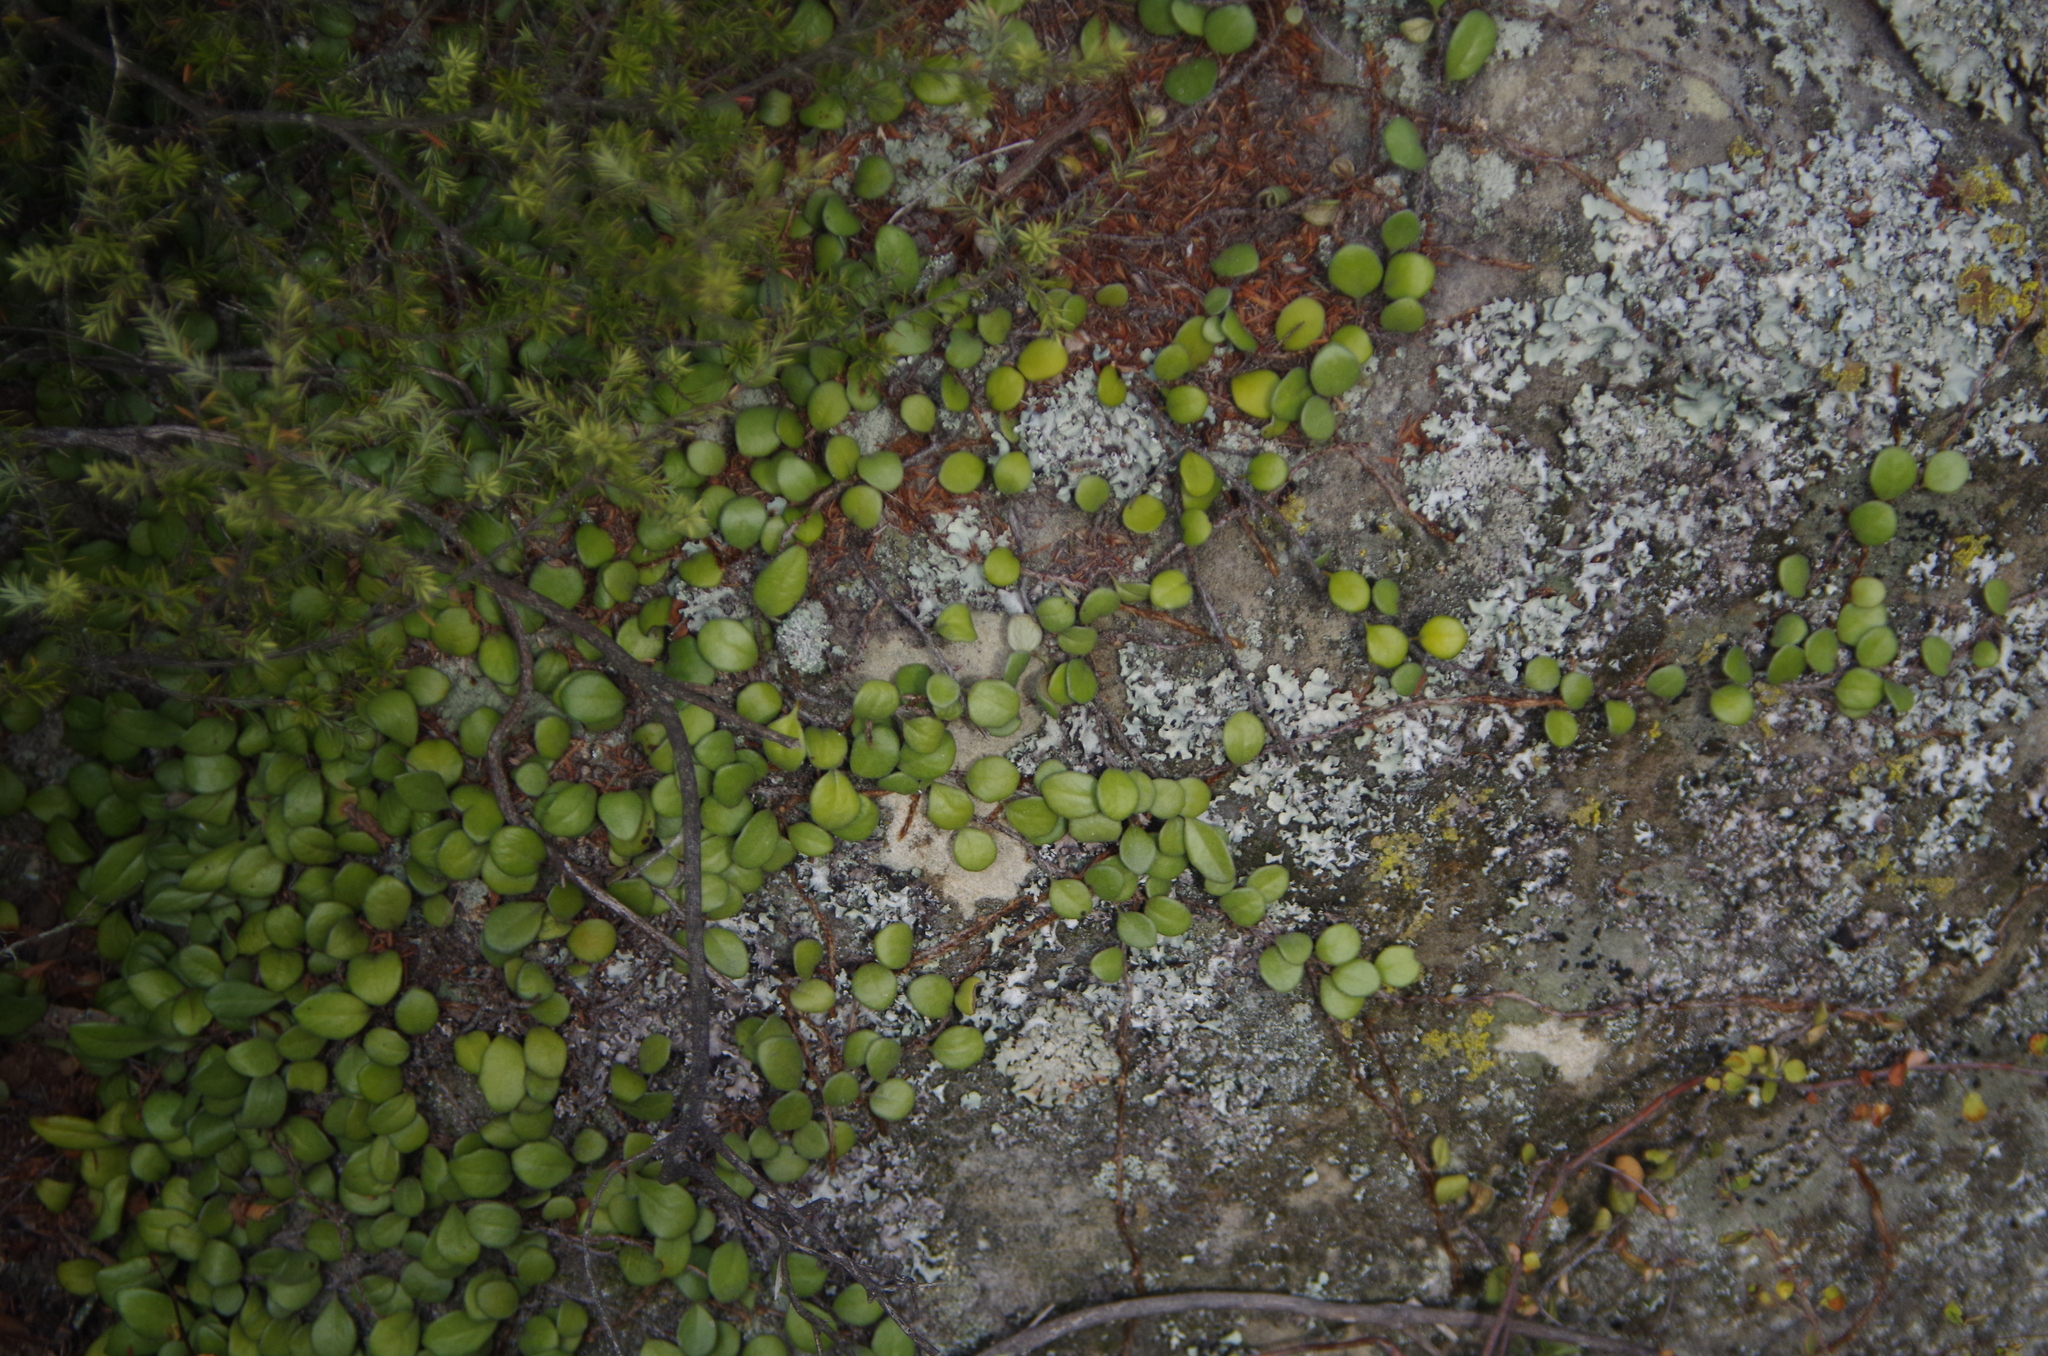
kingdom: Plantae
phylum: Tracheophyta
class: Polypodiopsida
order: Polypodiales
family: Polypodiaceae
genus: Pyrrosia
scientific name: Pyrrosia eleagnifolia
